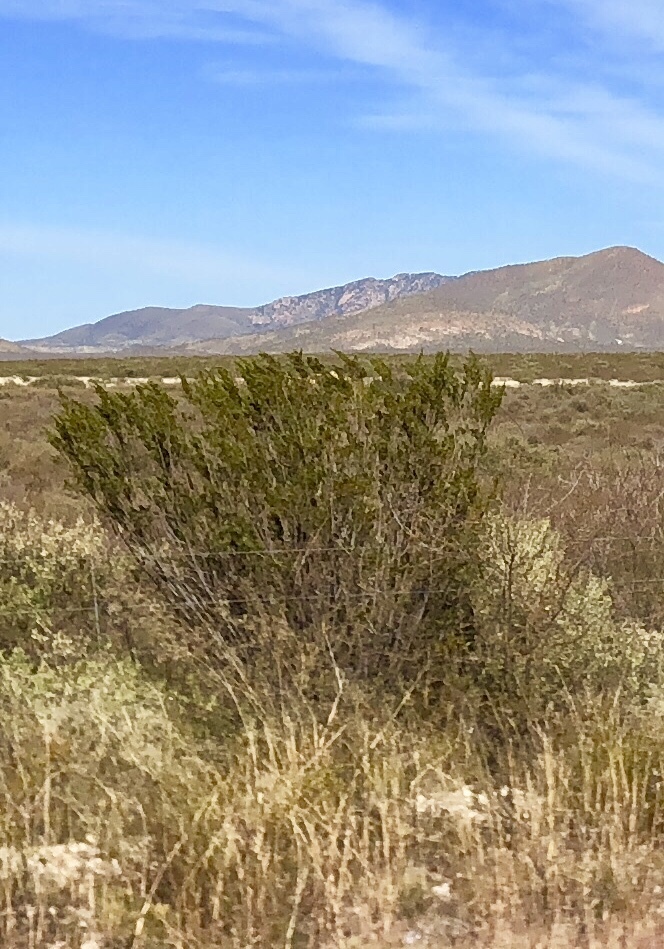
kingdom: Plantae
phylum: Tracheophyta
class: Magnoliopsida
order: Zygophyllales
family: Zygophyllaceae
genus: Larrea
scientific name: Larrea tridentata
